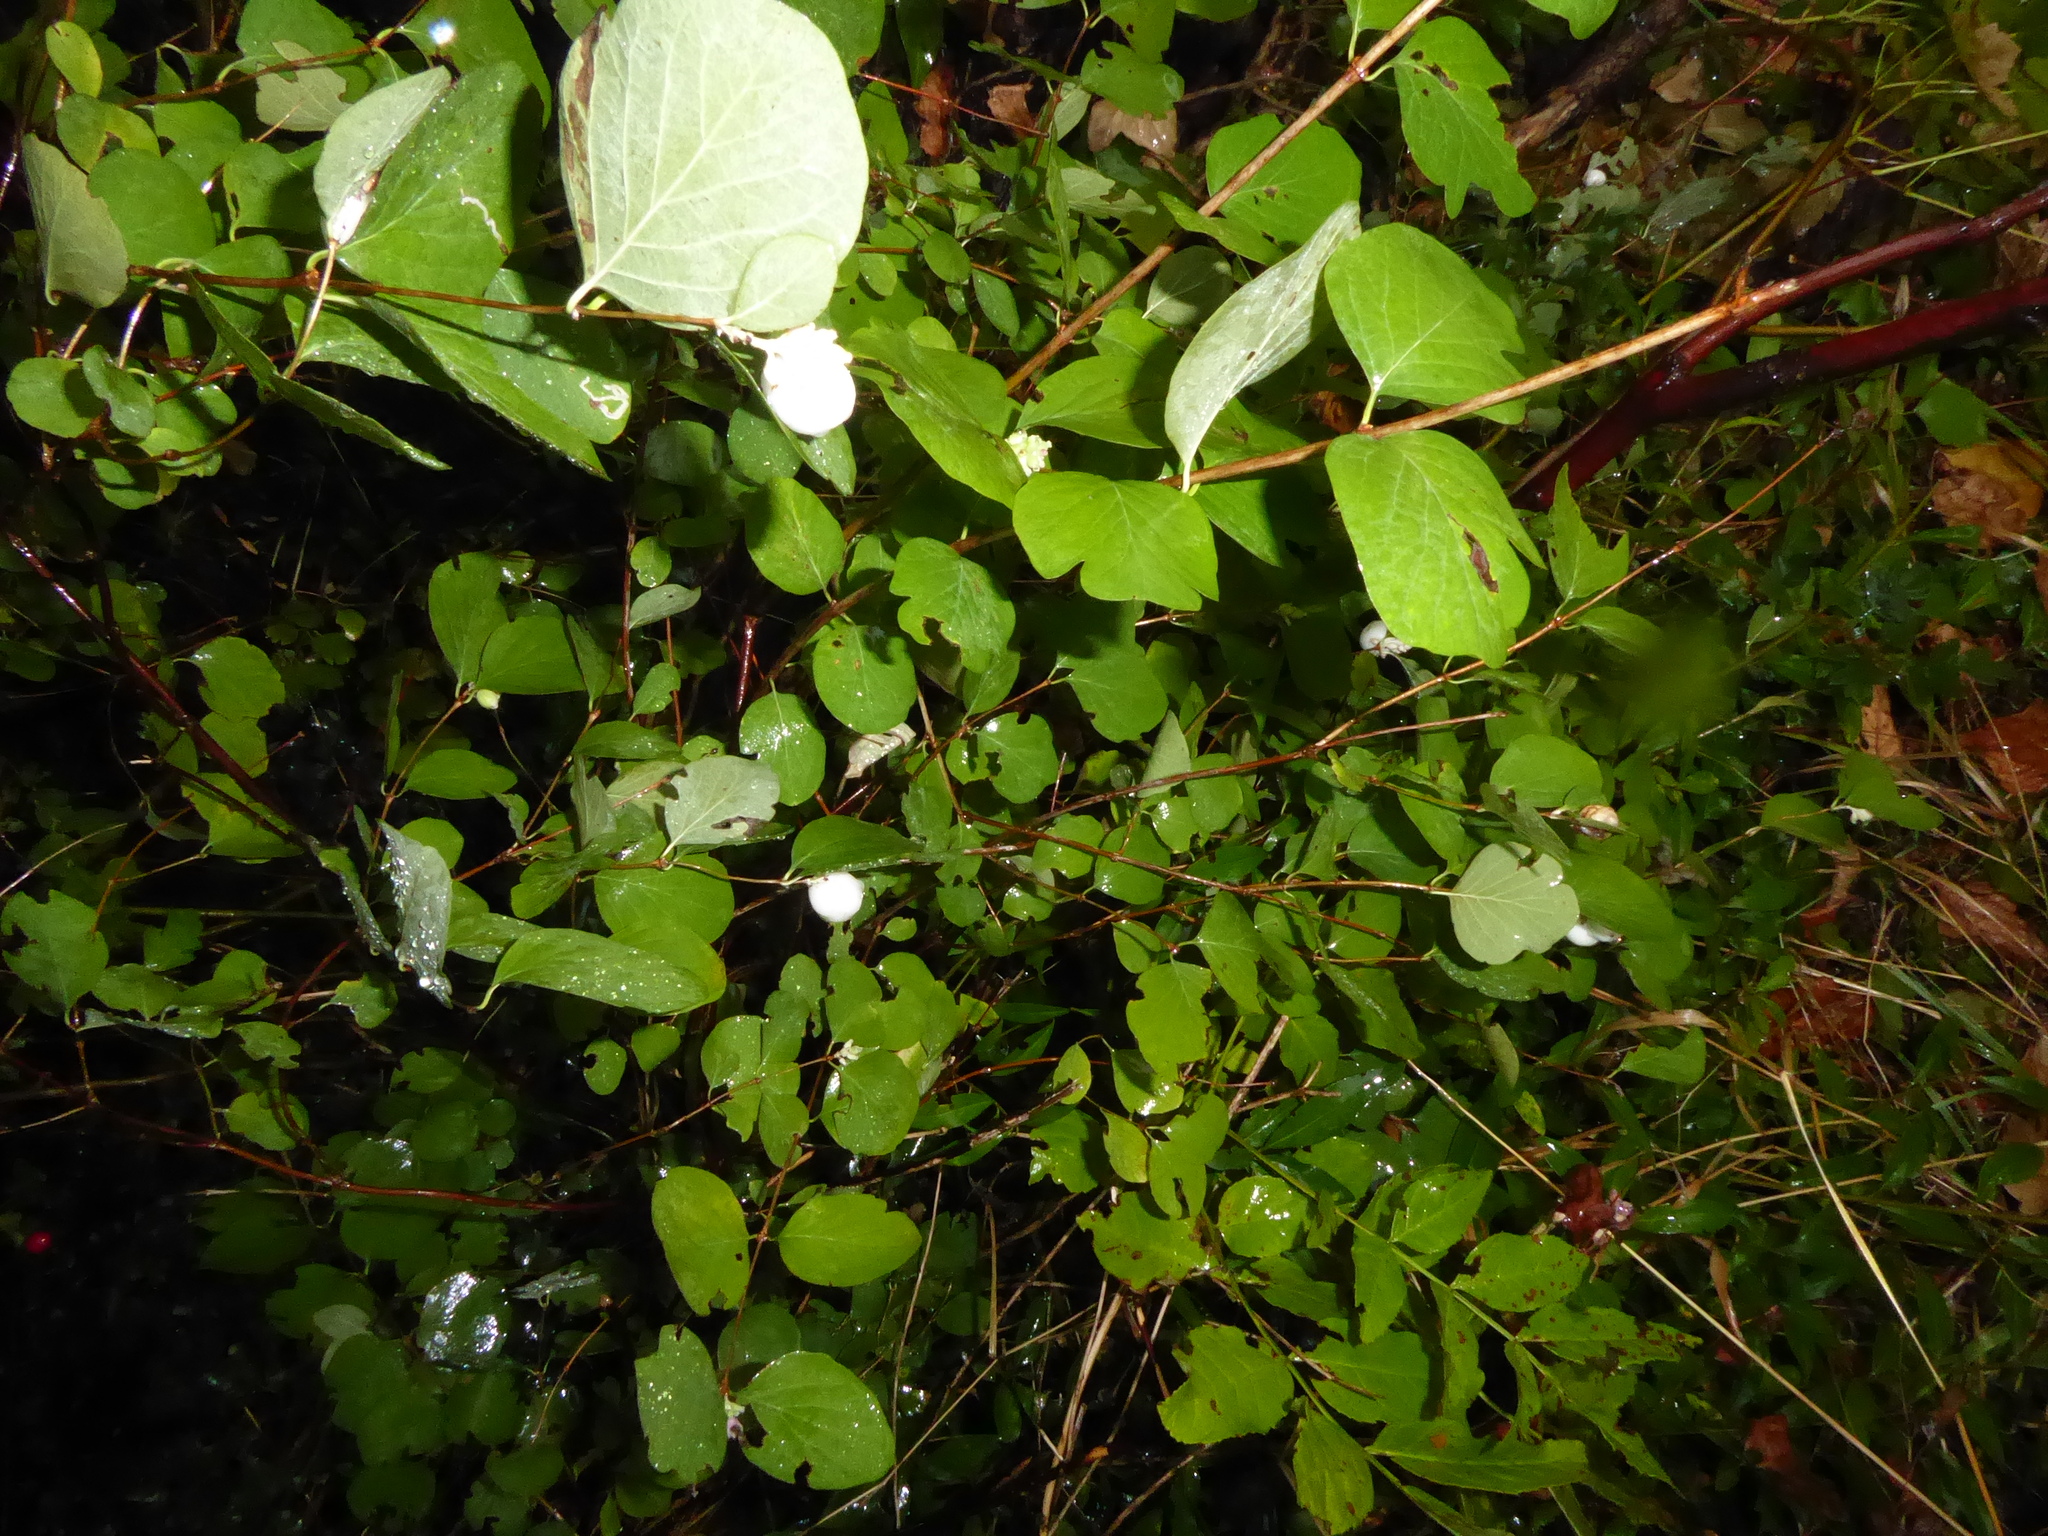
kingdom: Plantae
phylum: Tracheophyta
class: Magnoliopsida
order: Dipsacales
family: Caprifoliaceae
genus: Symphoricarpos
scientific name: Symphoricarpos albus
